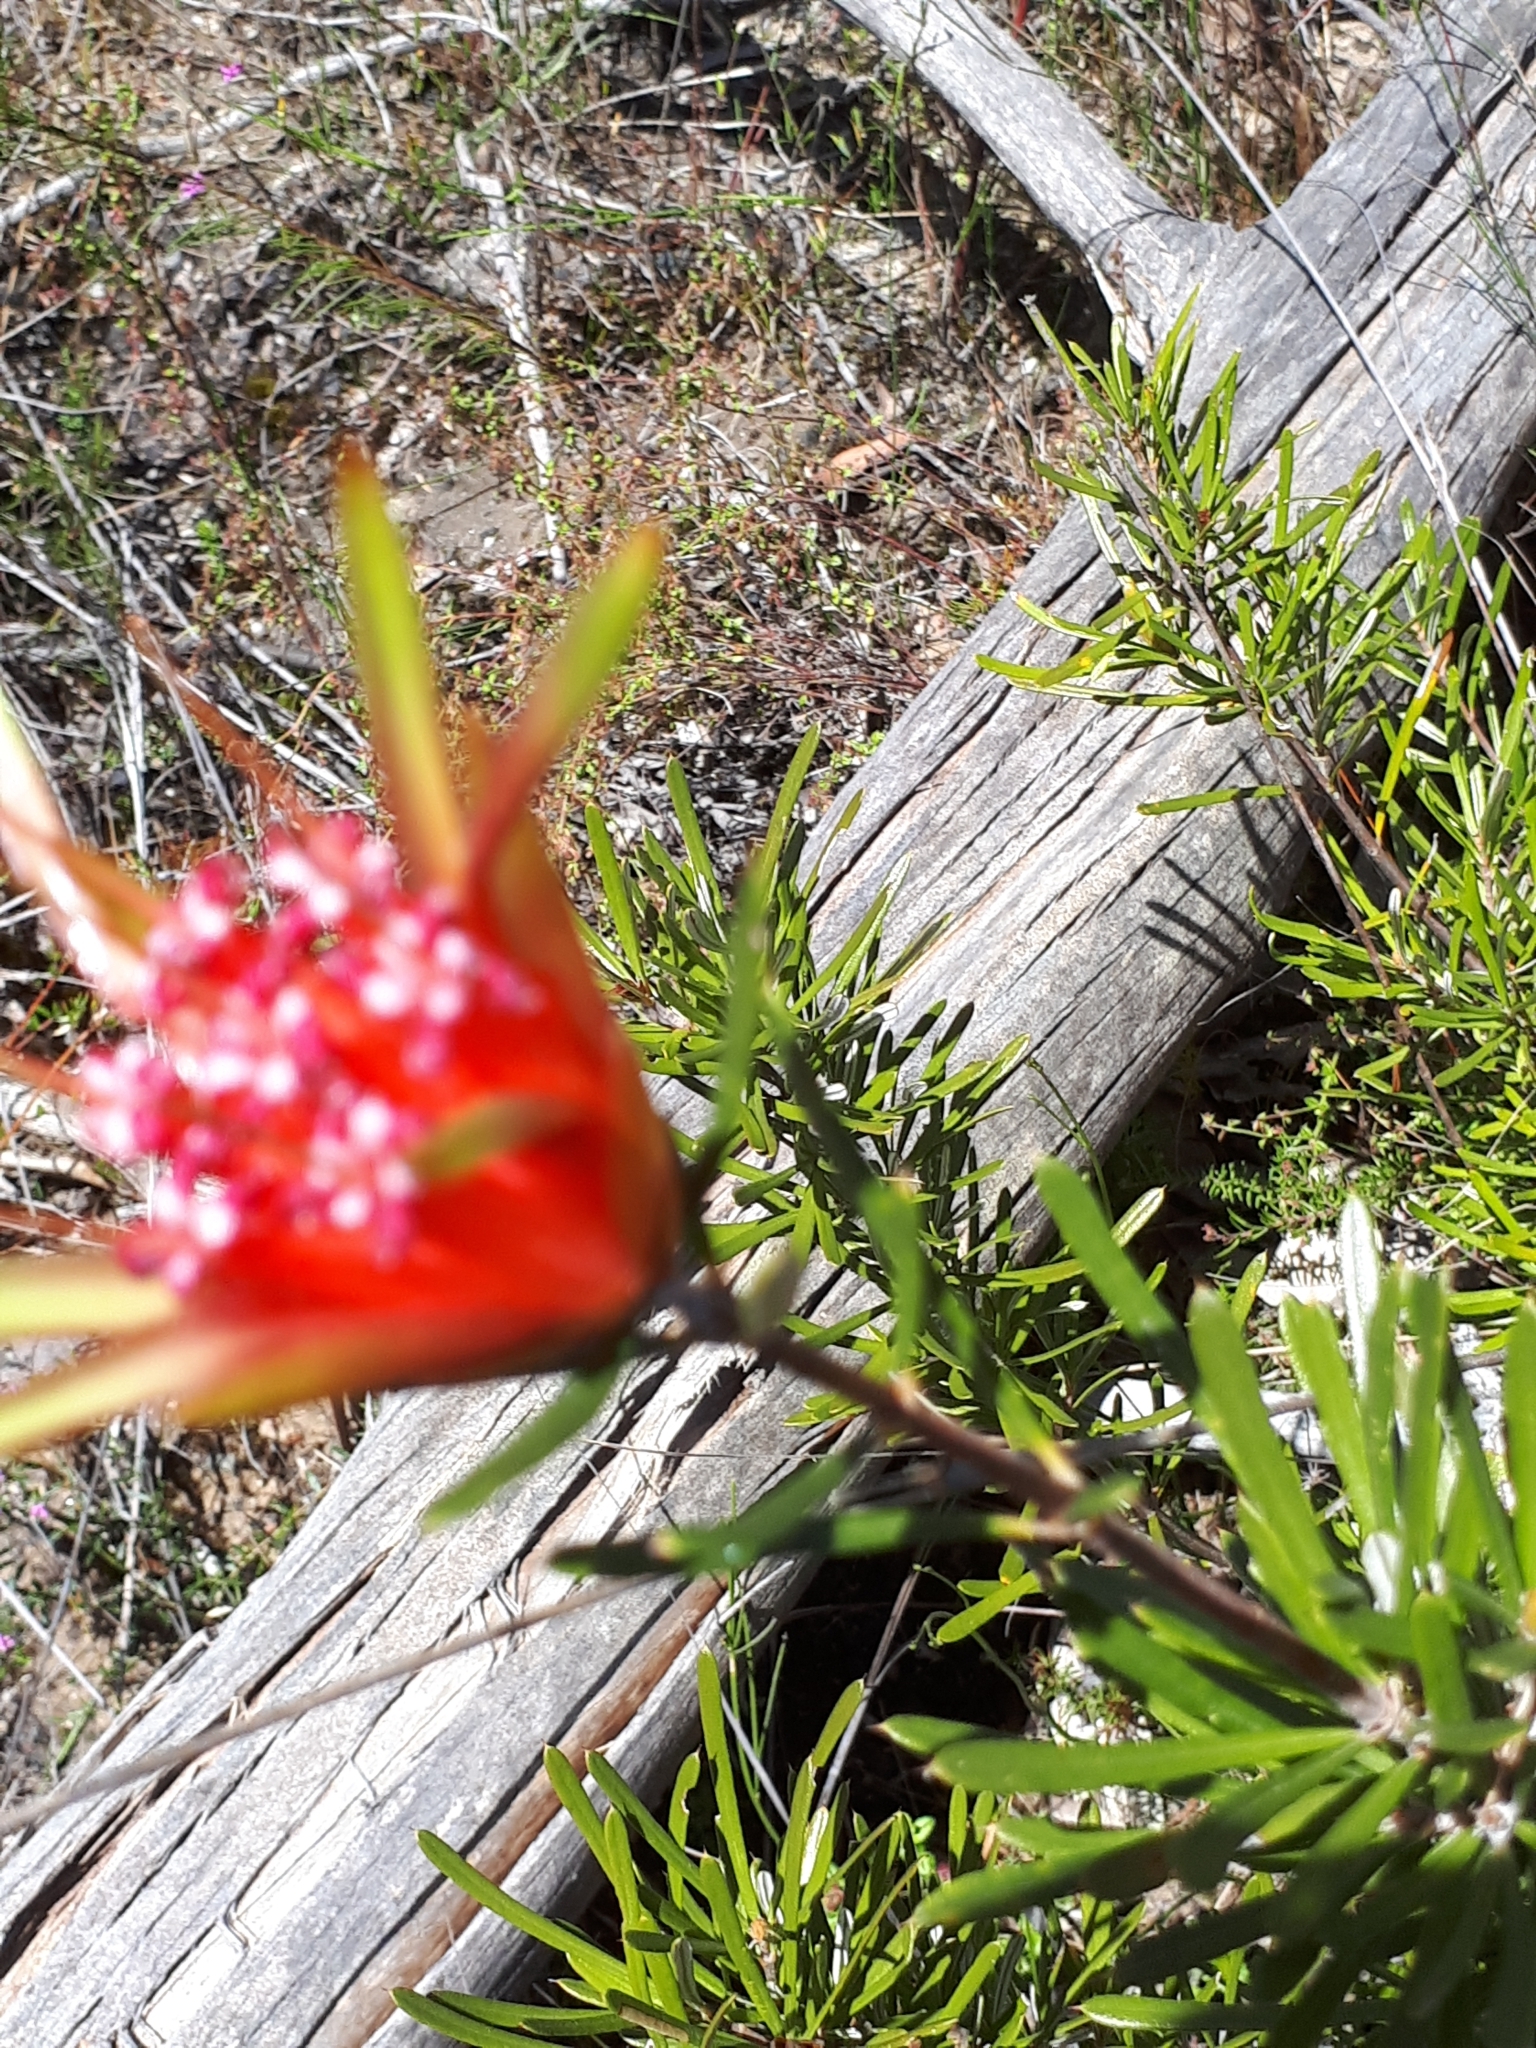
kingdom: Plantae
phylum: Tracheophyta
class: Magnoliopsida
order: Proteales
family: Proteaceae
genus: Lambertia
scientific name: Lambertia formosa
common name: Mountain-devil
